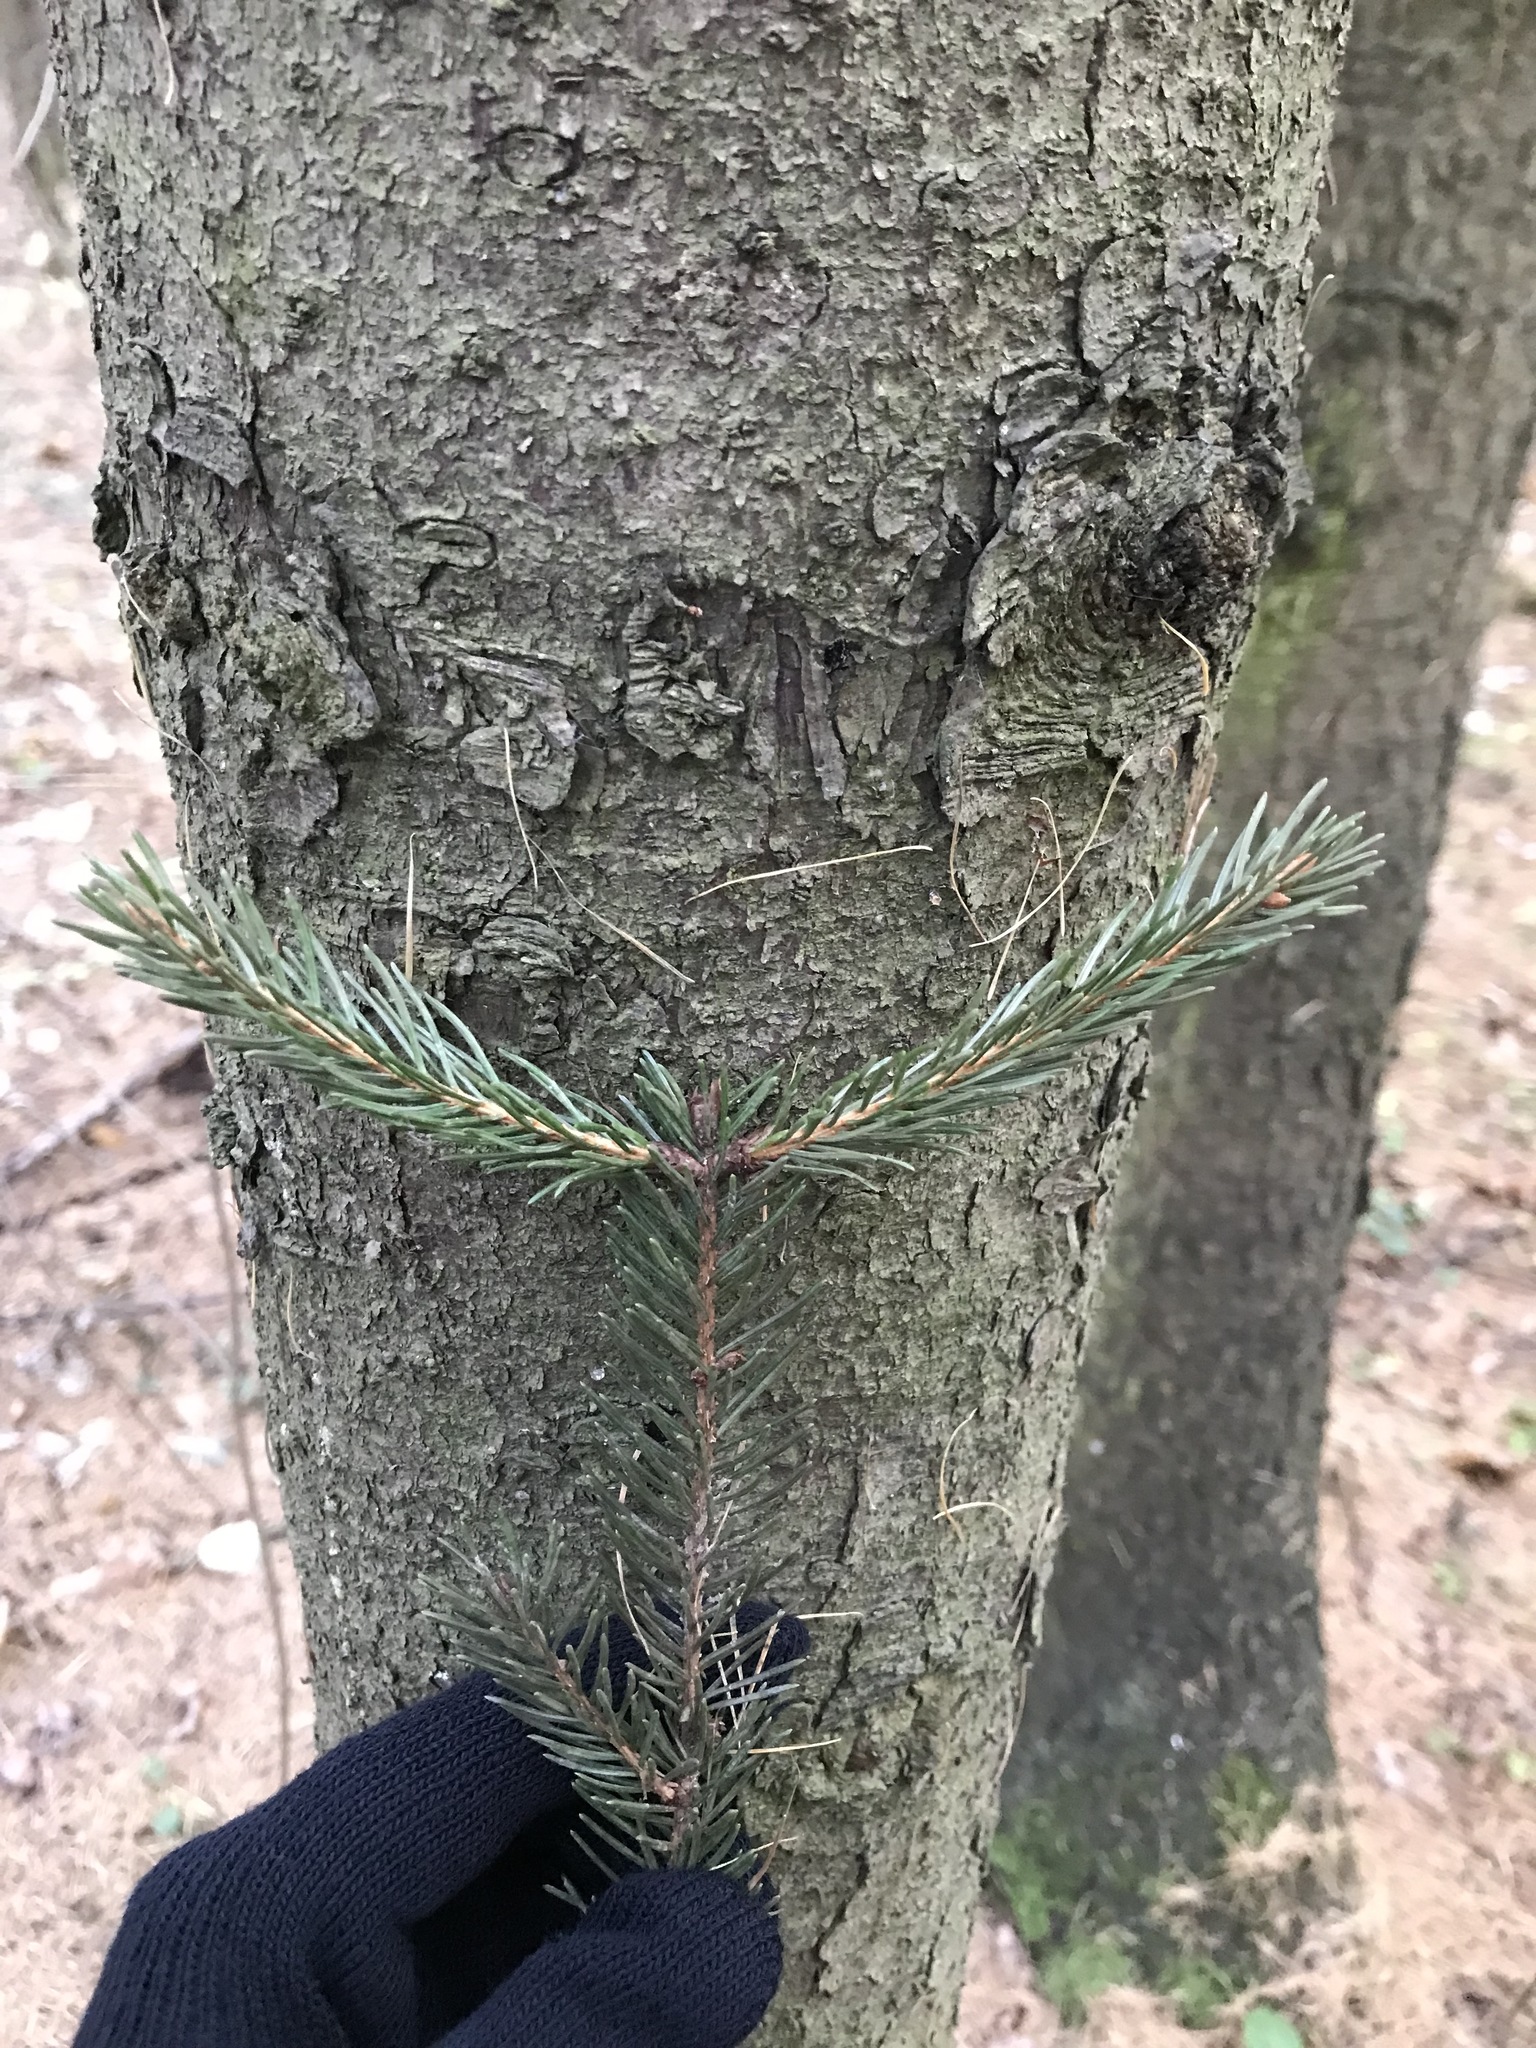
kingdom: Plantae
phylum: Tracheophyta
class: Pinopsida
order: Pinales
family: Pinaceae
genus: Picea
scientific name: Picea abies
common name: Norway spruce
